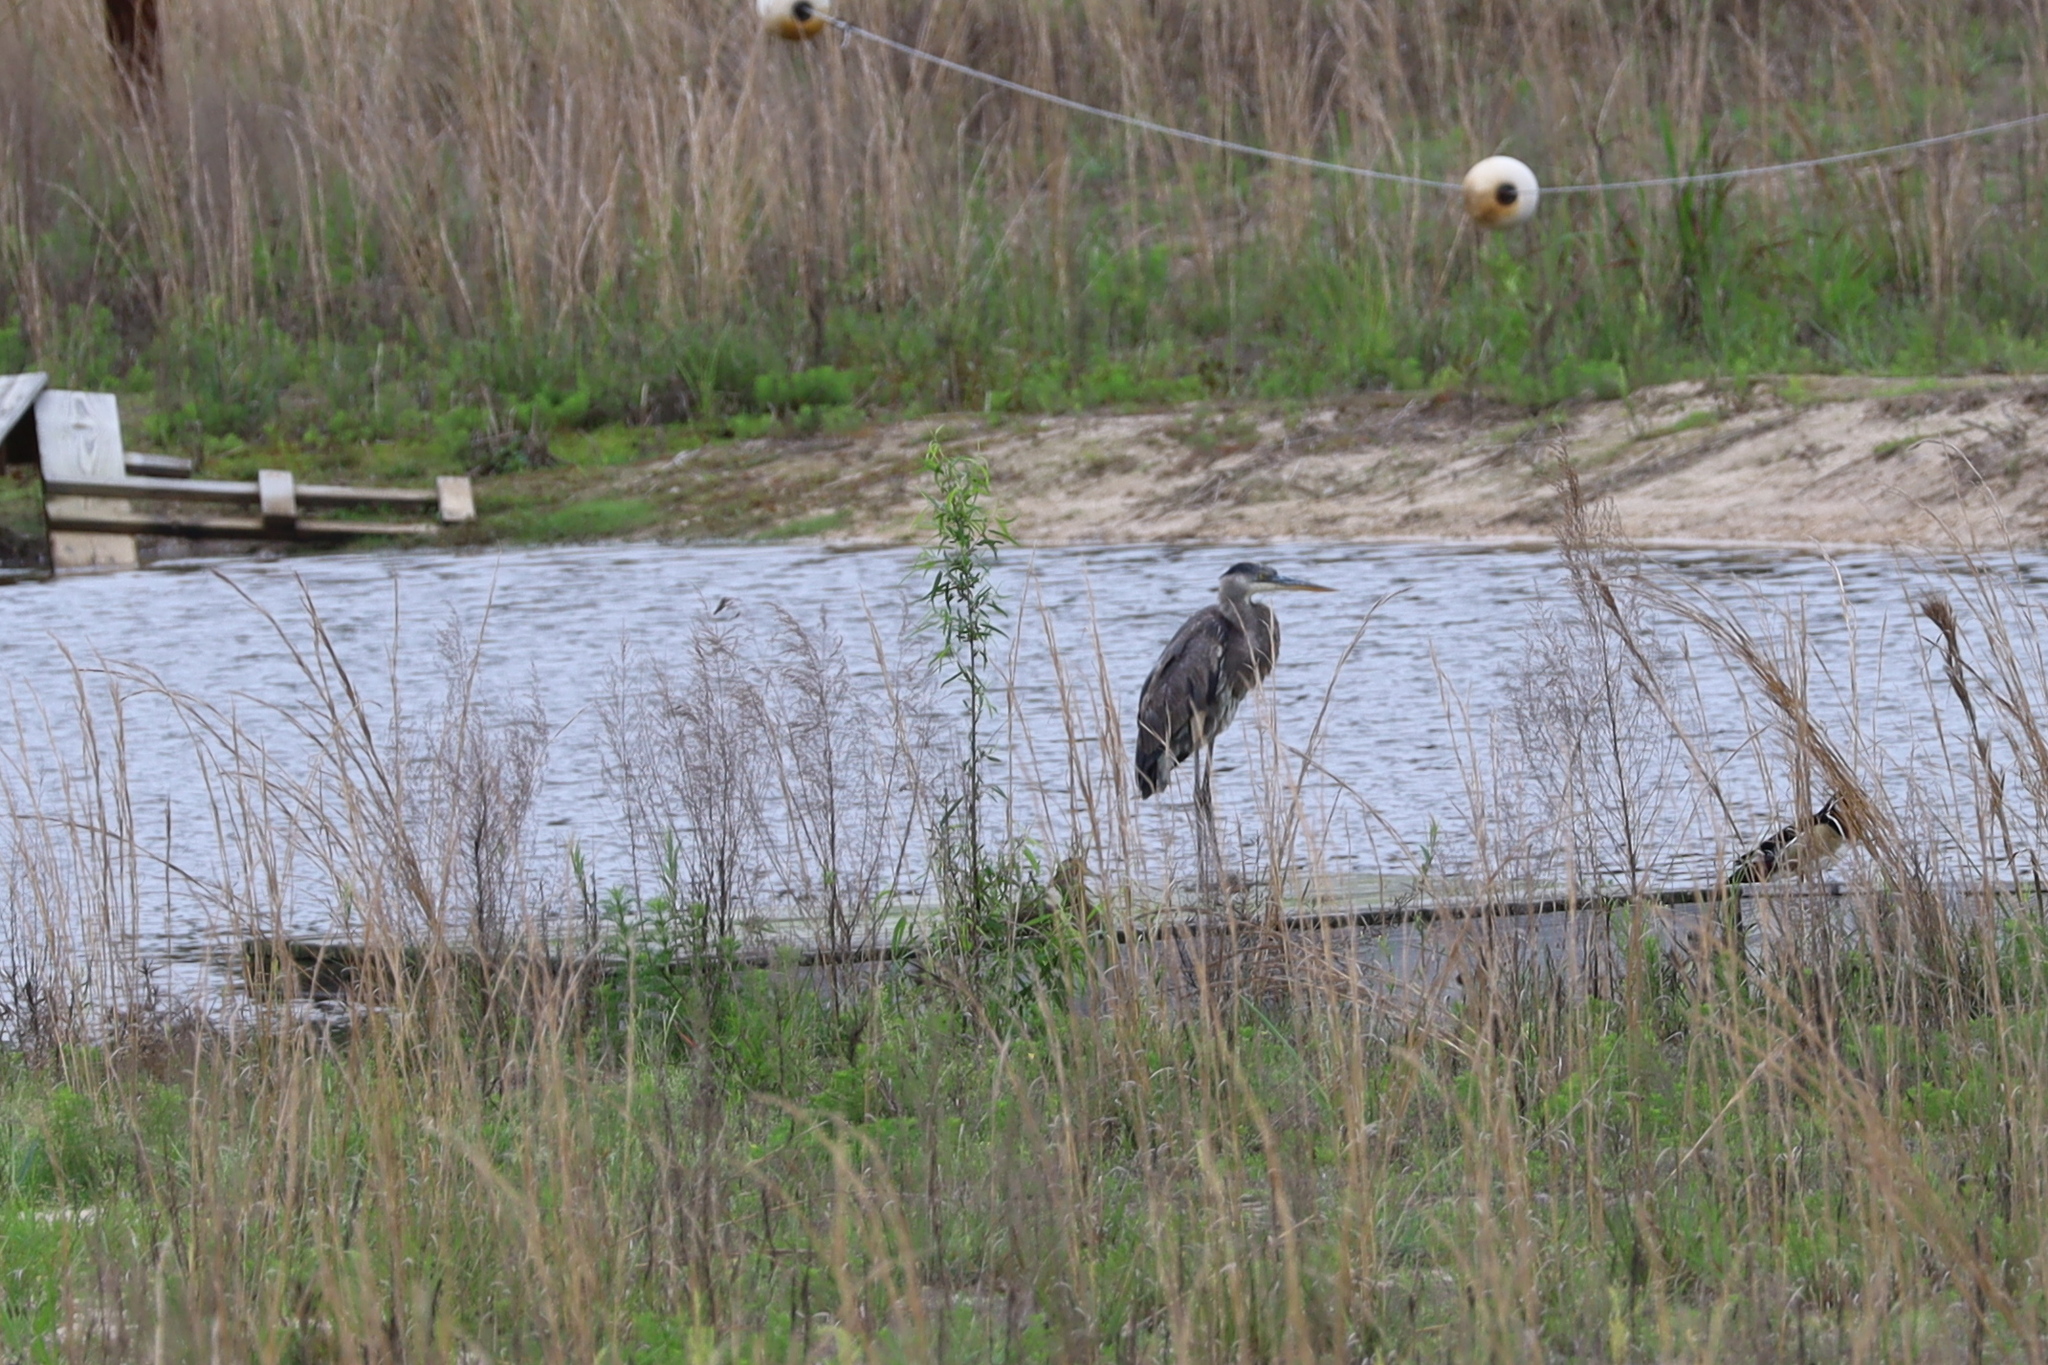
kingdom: Animalia
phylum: Chordata
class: Aves
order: Pelecaniformes
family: Ardeidae
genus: Ardea
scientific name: Ardea herodias
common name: Great blue heron
